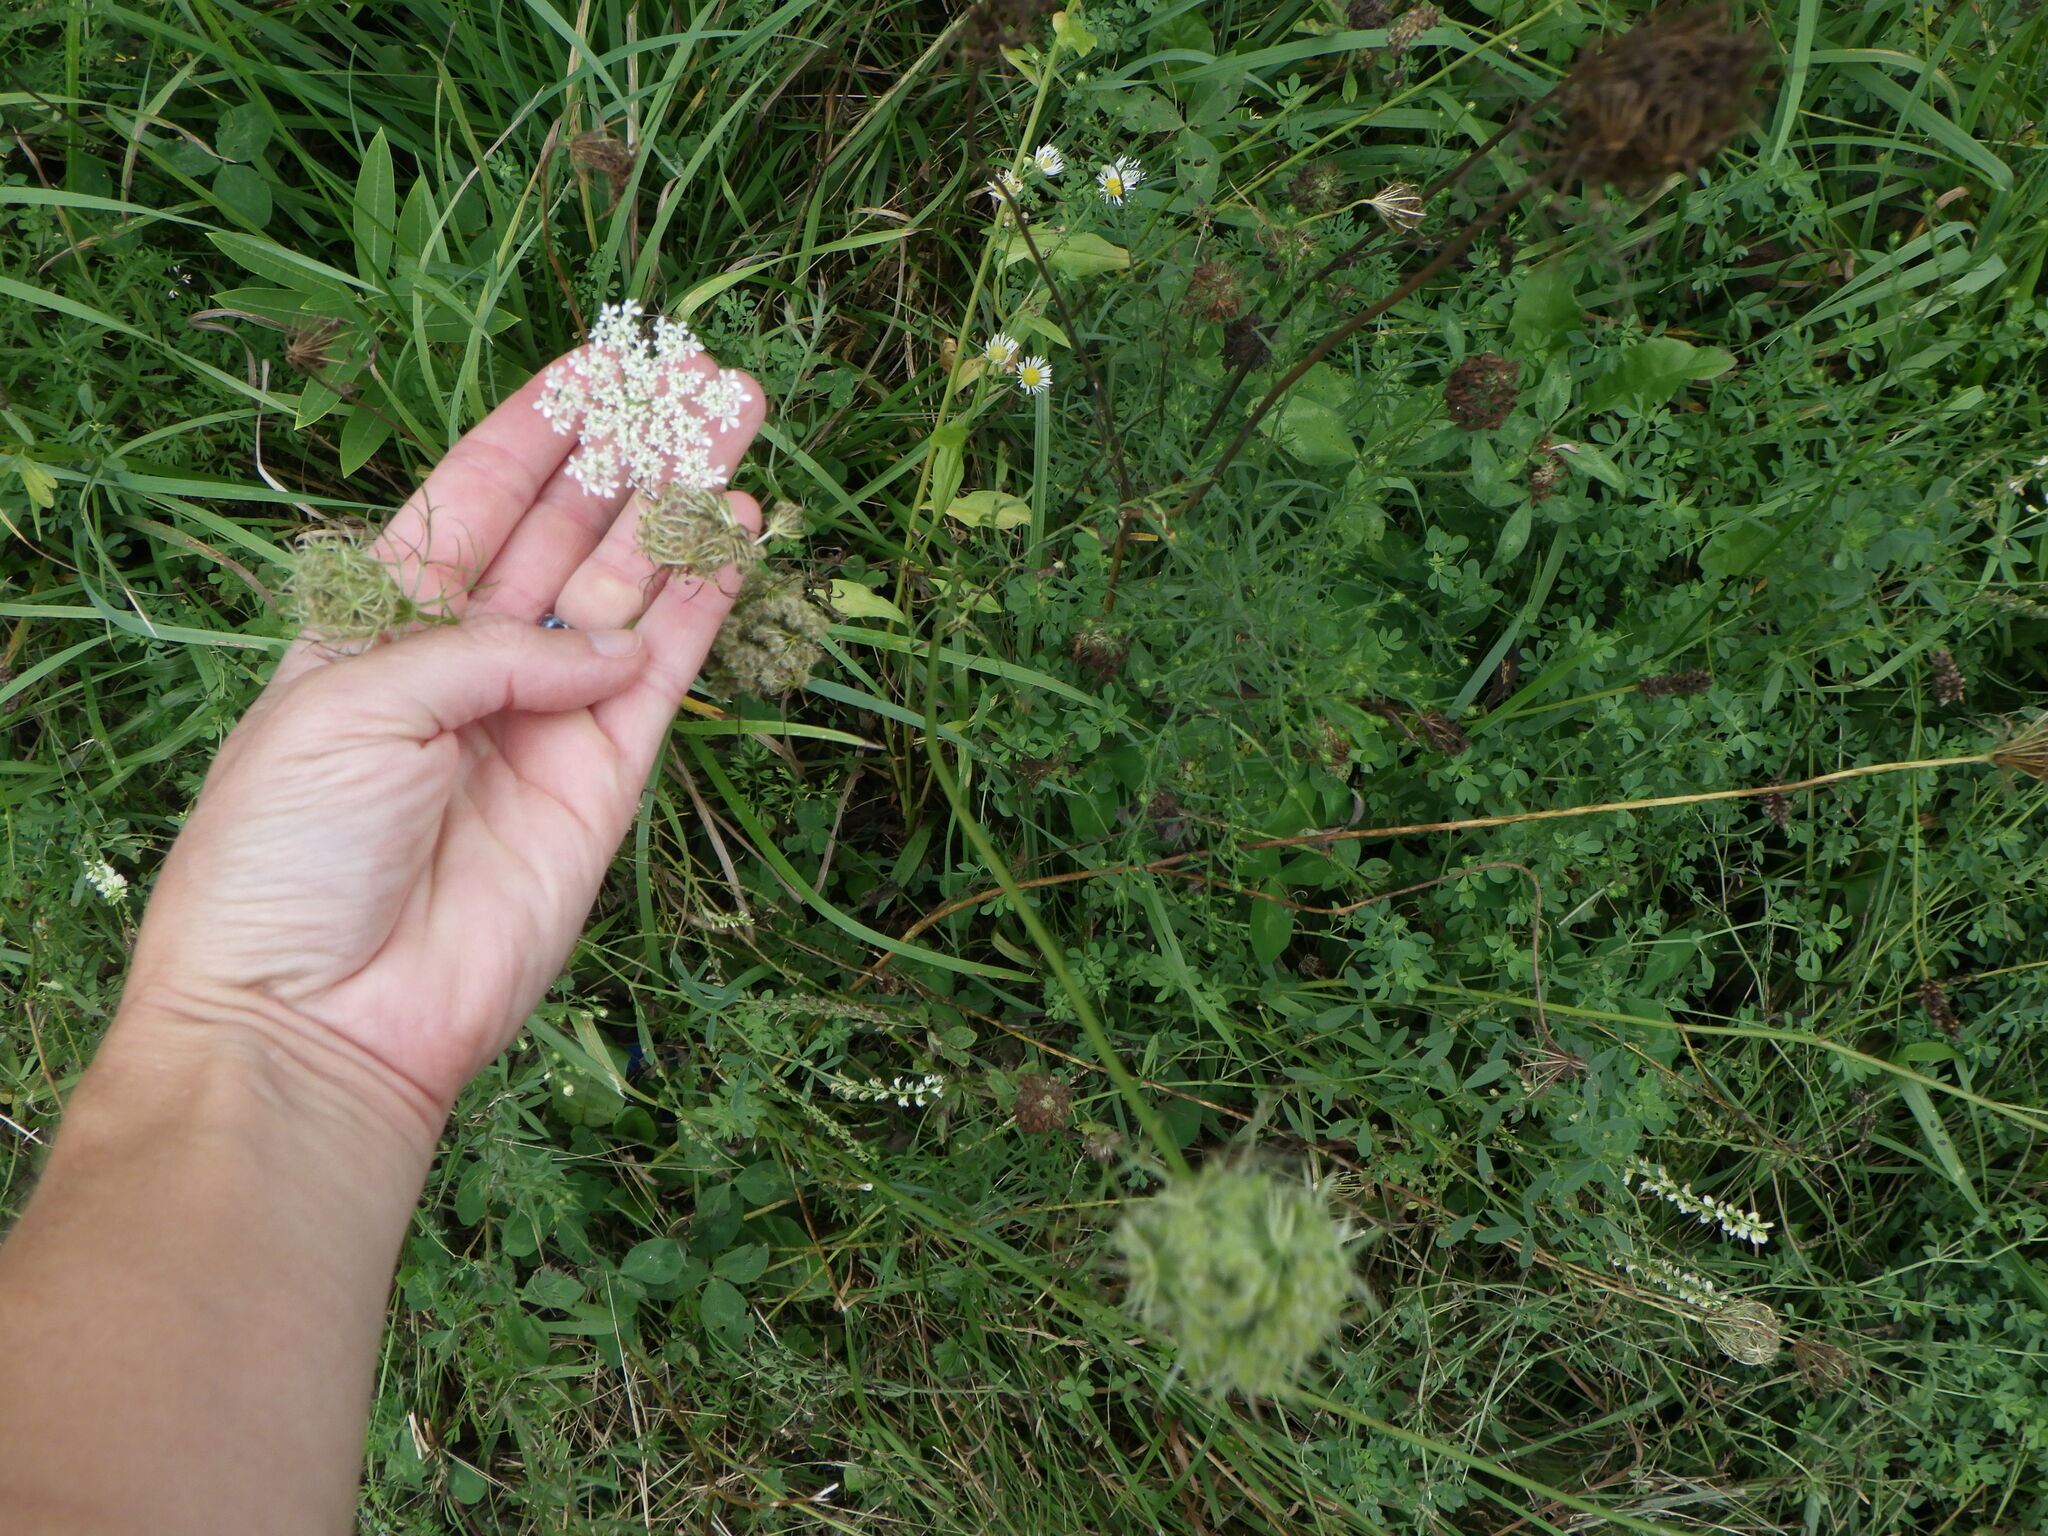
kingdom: Plantae
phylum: Tracheophyta
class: Magnoliopsida
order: Apiales
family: Apiaceae
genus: Daucus
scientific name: Daucus carota
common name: Wild carrot
